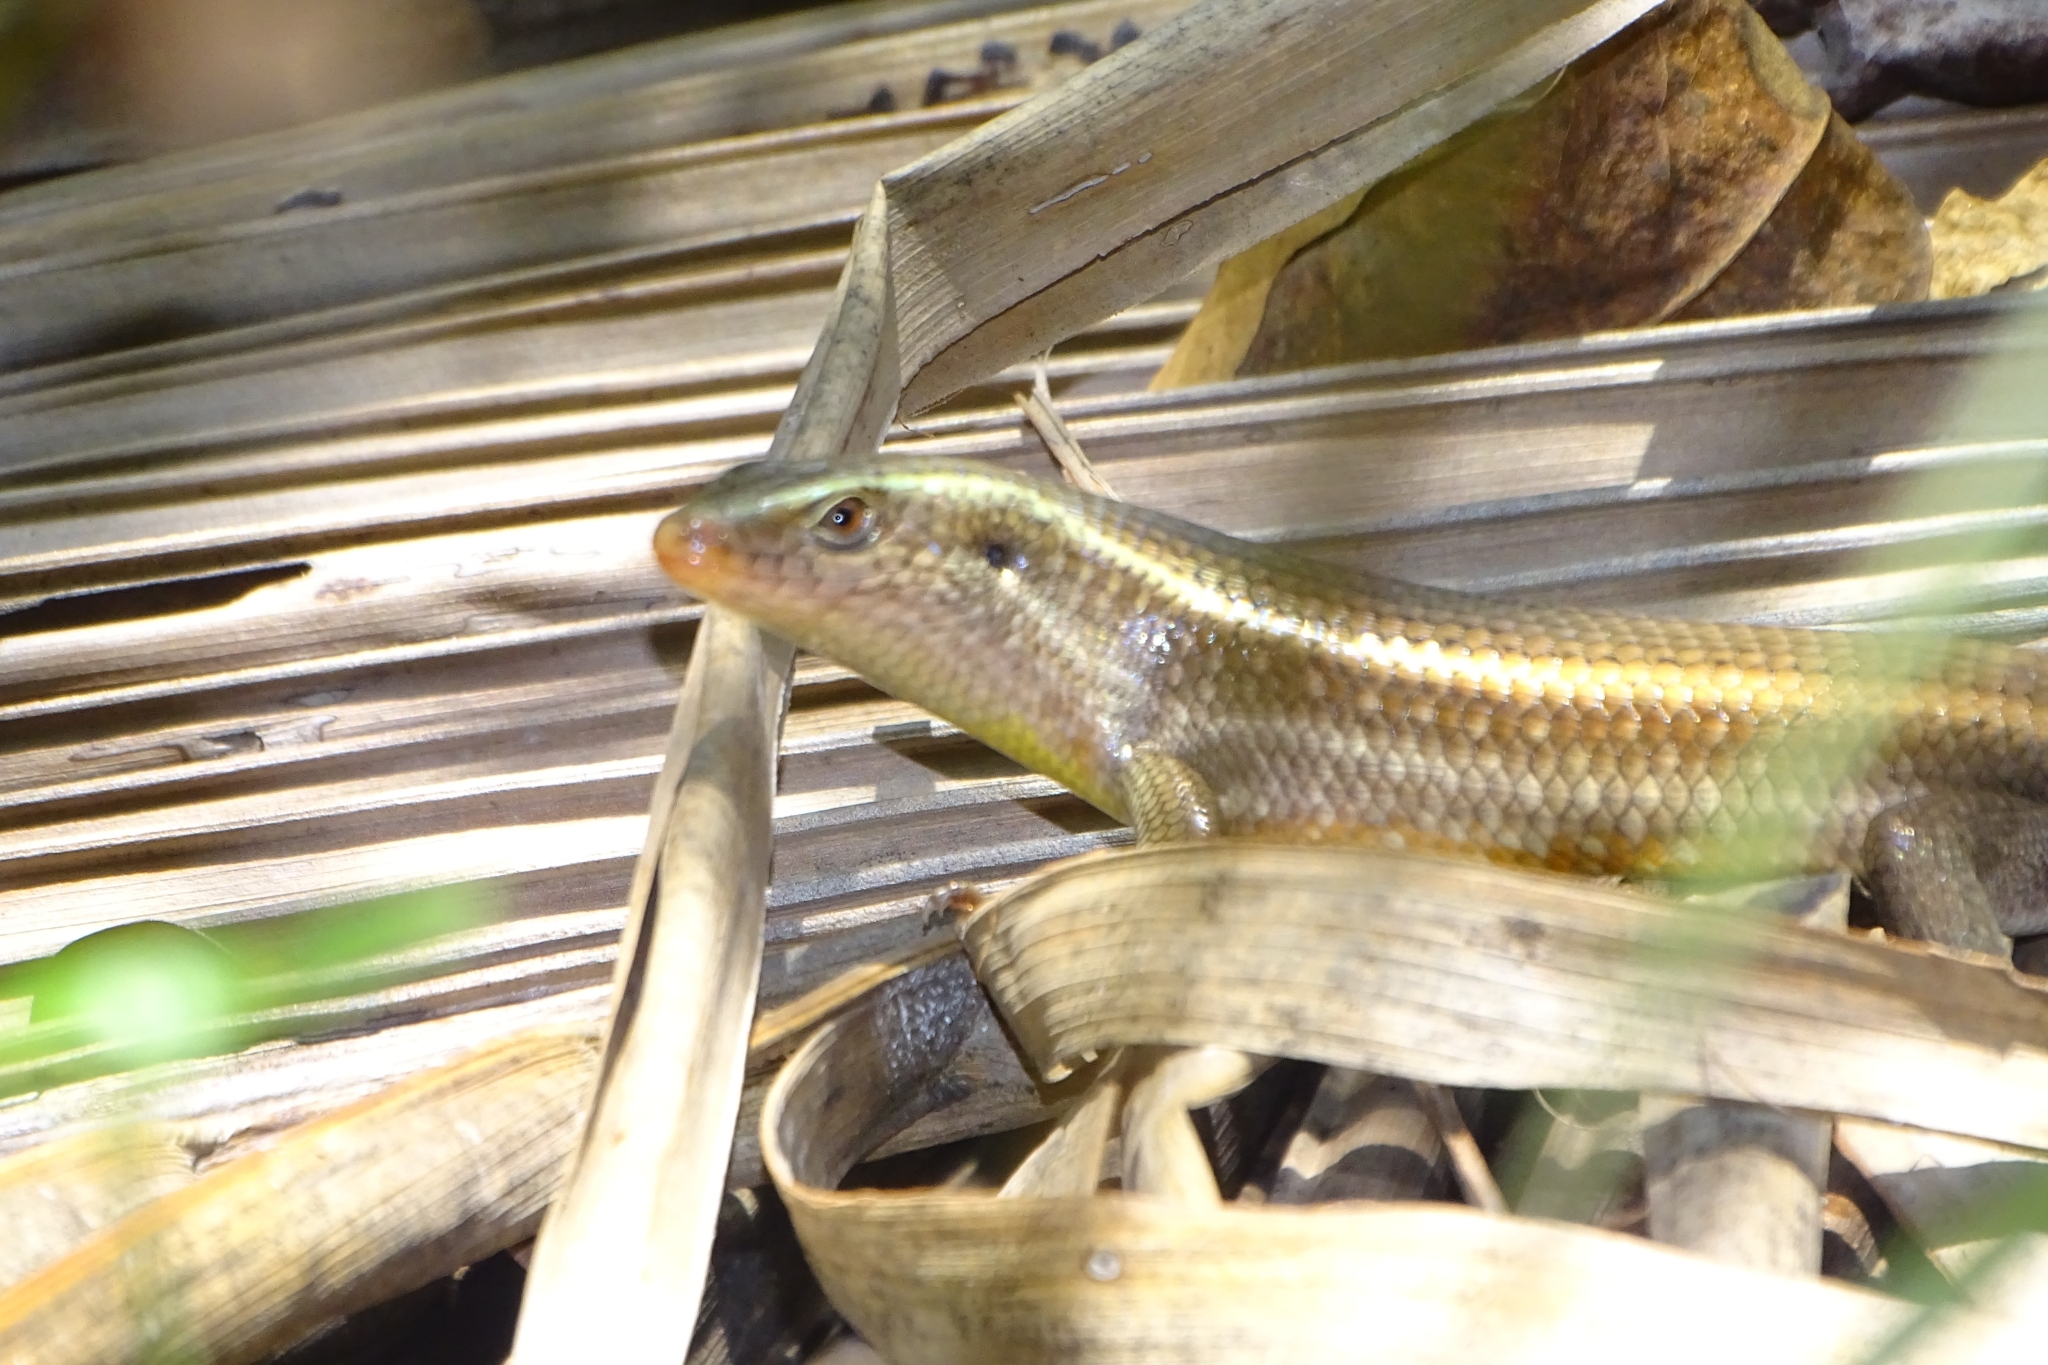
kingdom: Animalia
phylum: Chordata
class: Squamata
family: Scincidae
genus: Eutropis
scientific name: Eutropis carinata
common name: Keeled indian mabuya
